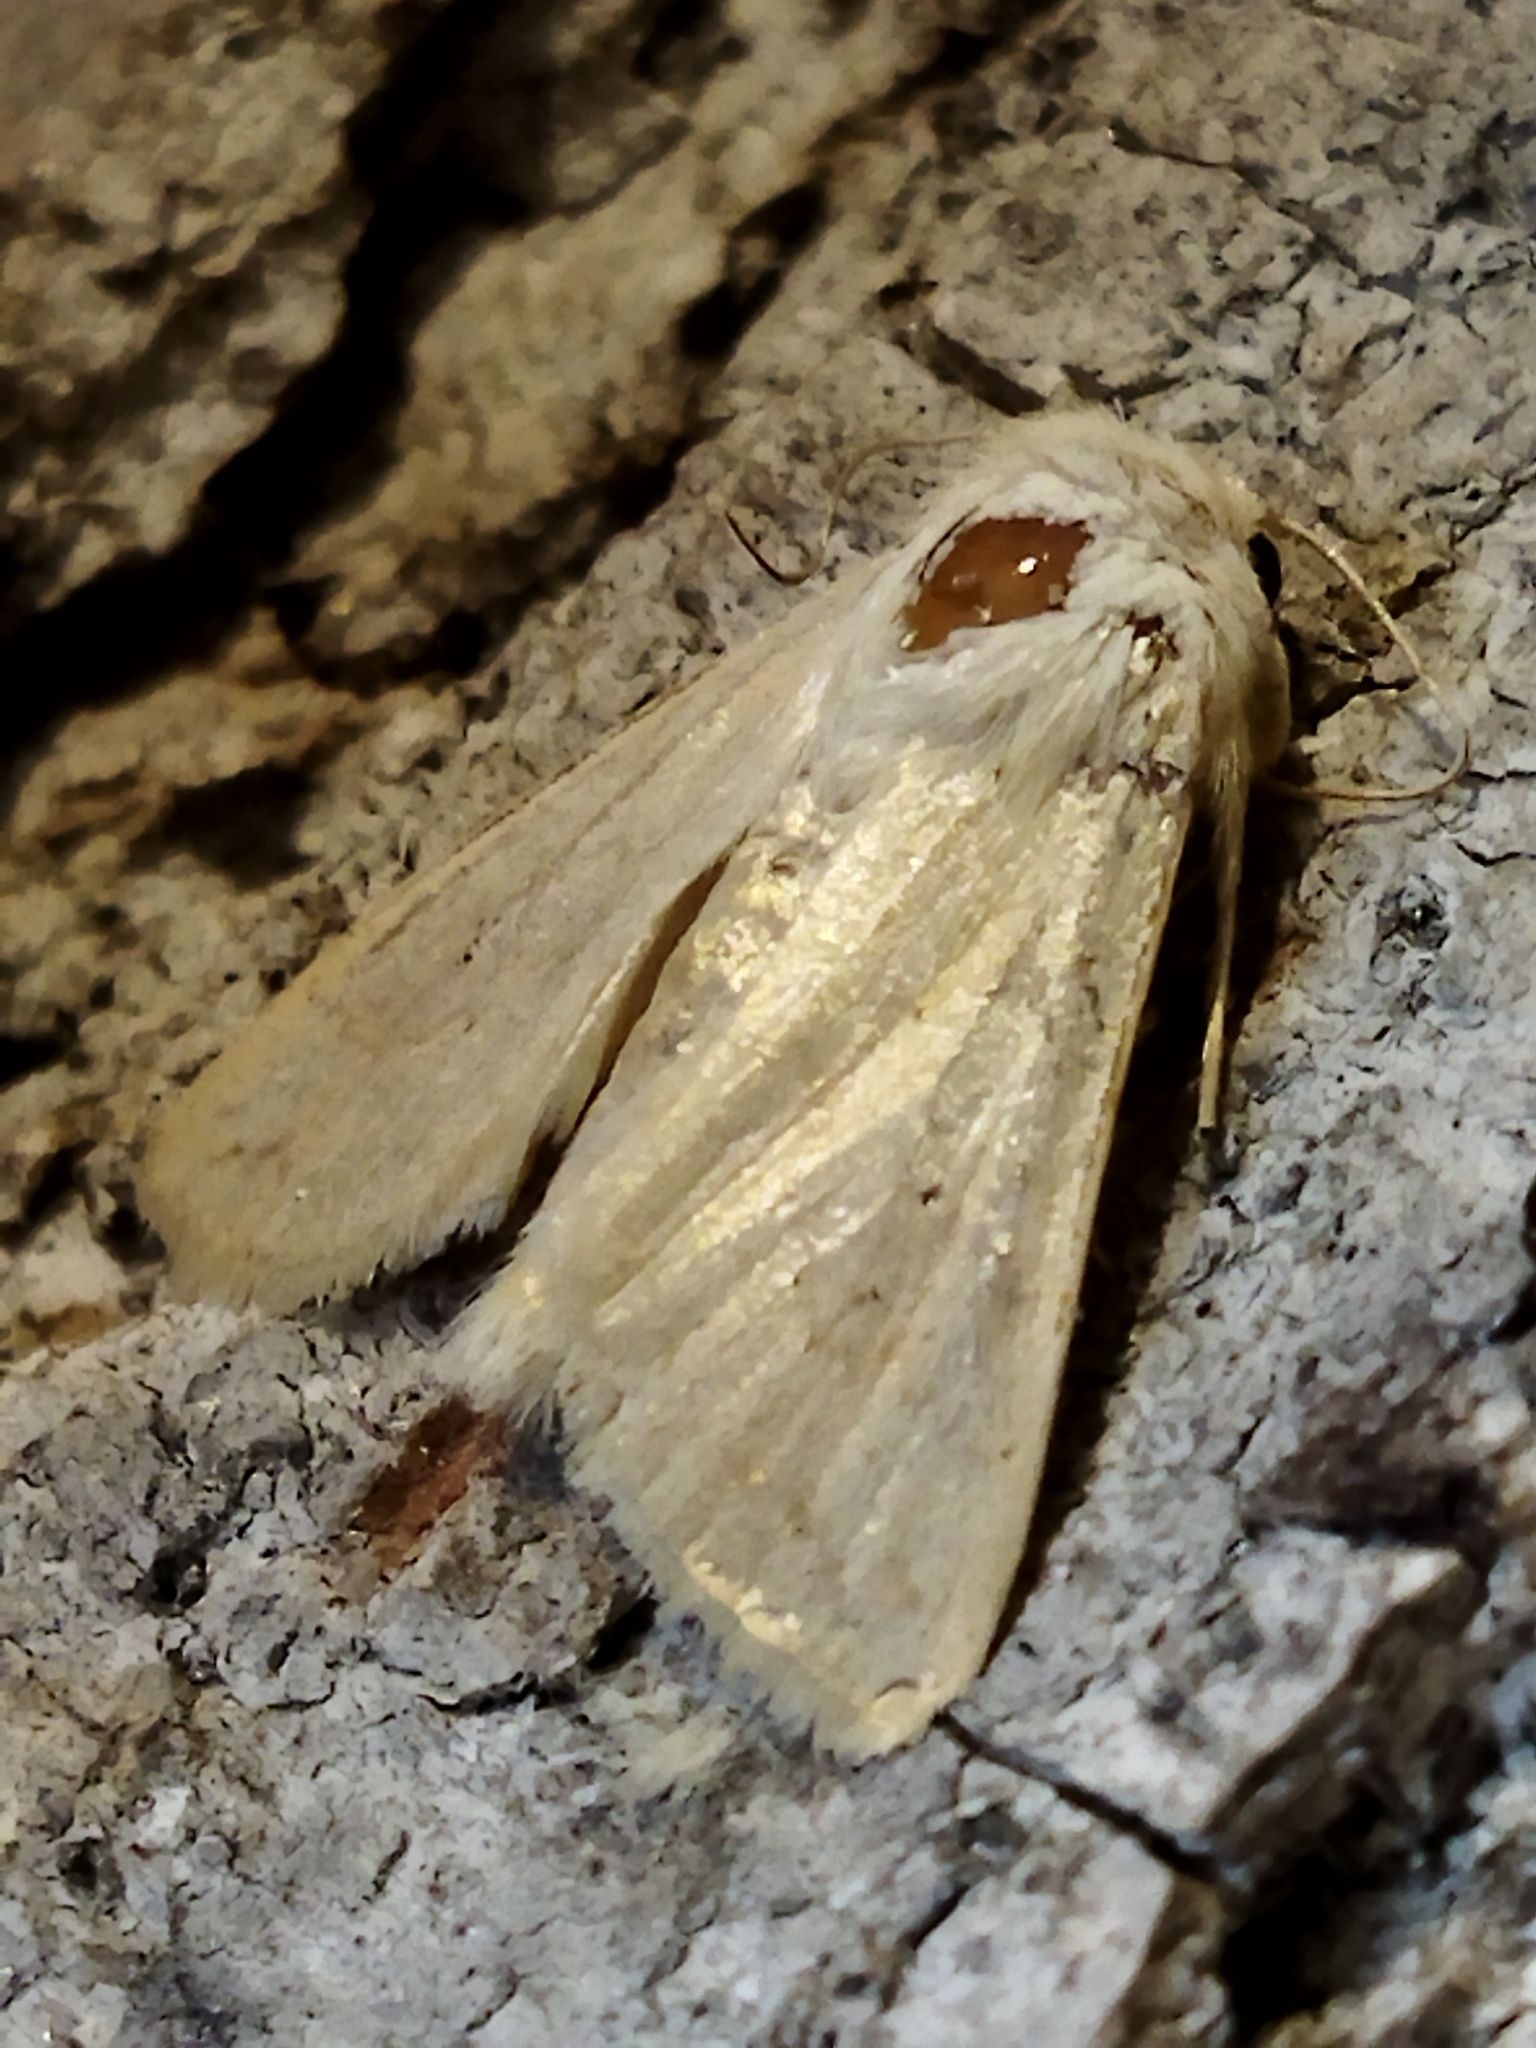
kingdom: Animalia
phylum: Arthropoda
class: Insecta
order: Lepidoptera
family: Noctuidae
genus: Mythimna
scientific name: Mythimna vitellina
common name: Delicate
